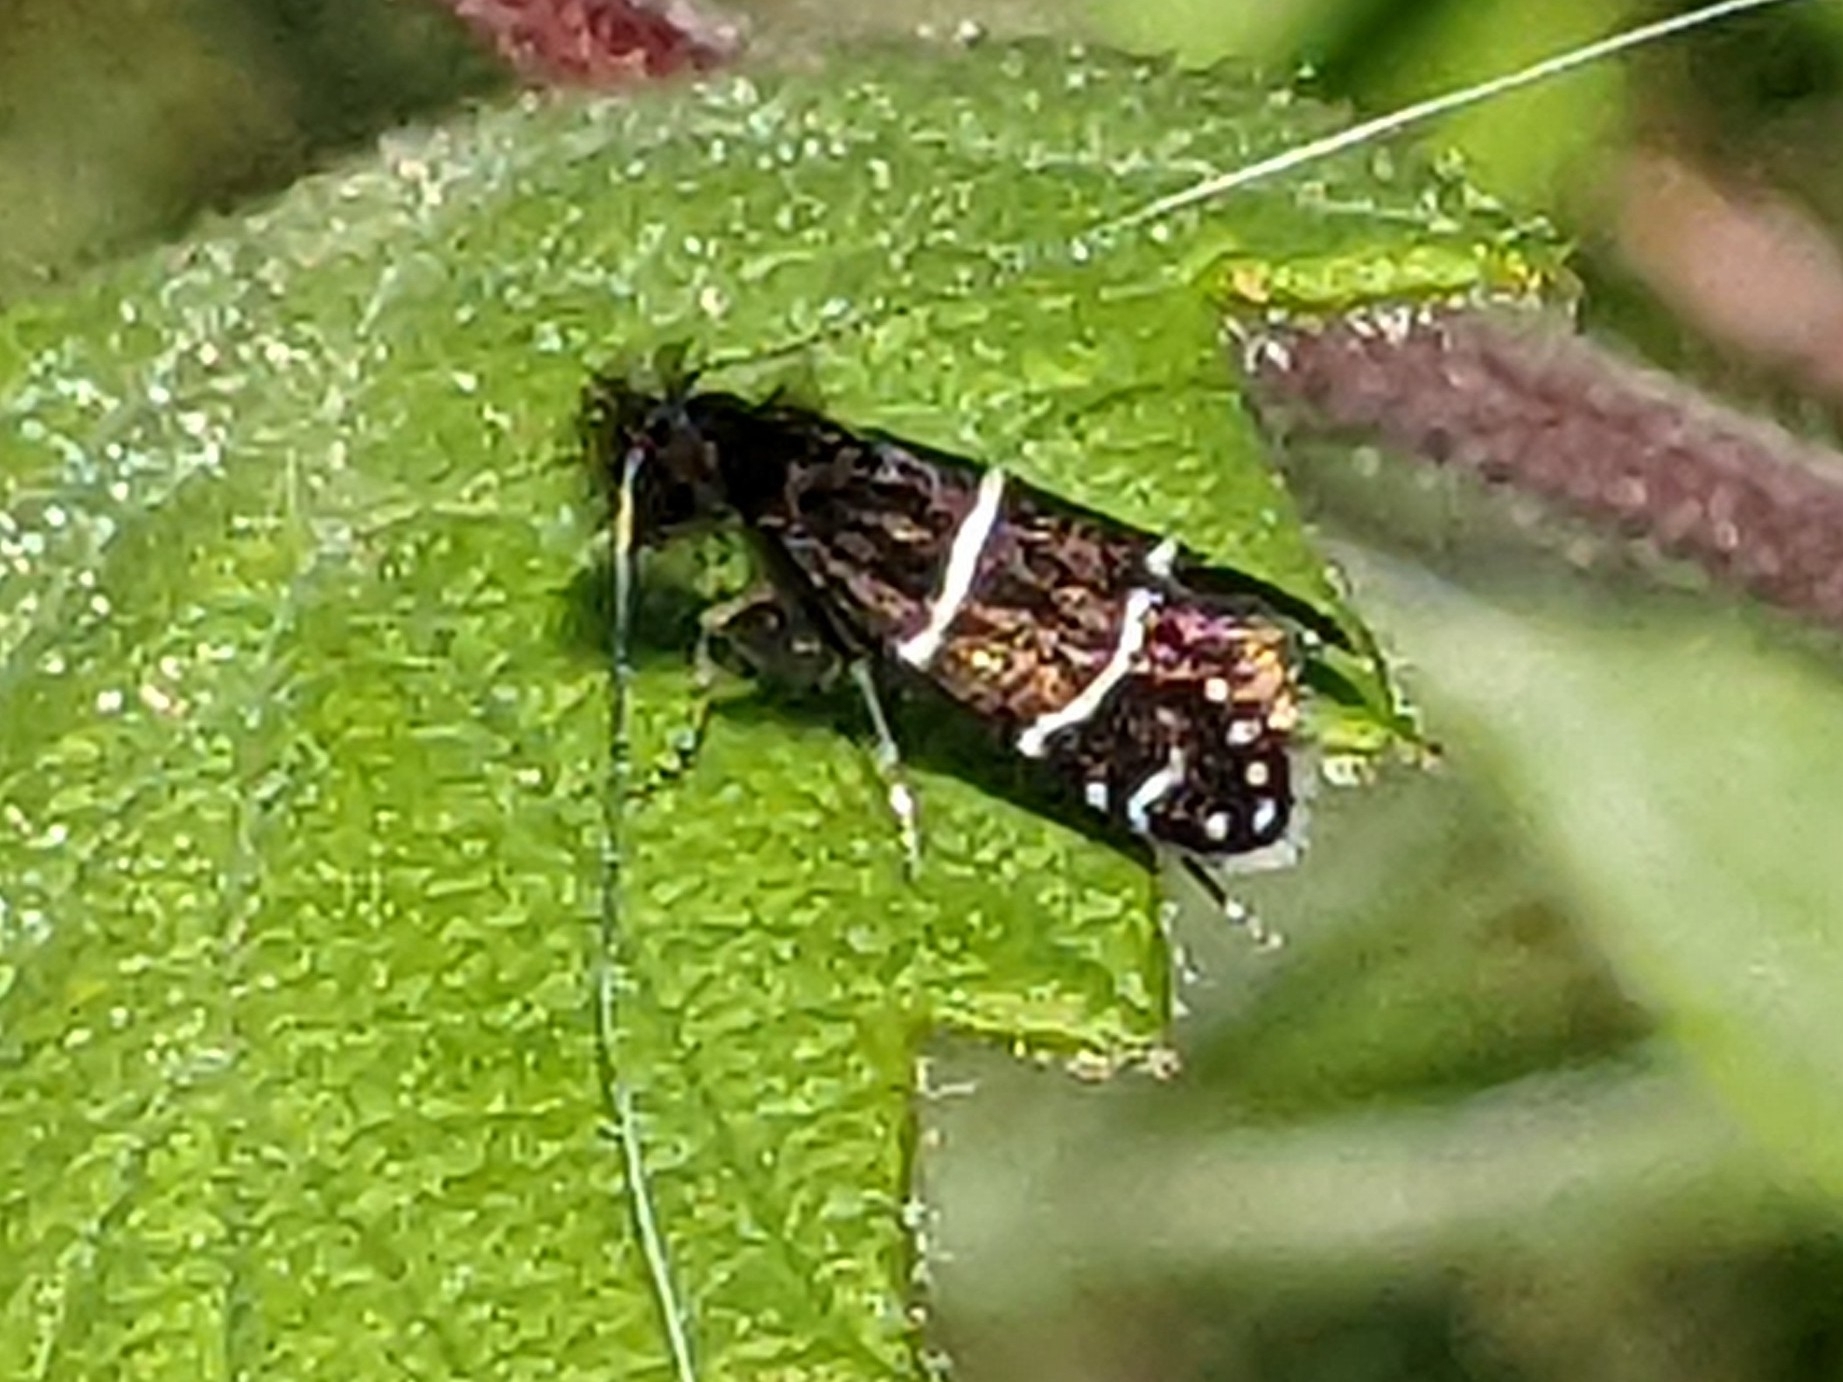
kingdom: Animalia
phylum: Arthropoda
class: Insecta
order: Lepidoptera
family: Adelidae
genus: Adela
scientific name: Adela septentrionella
